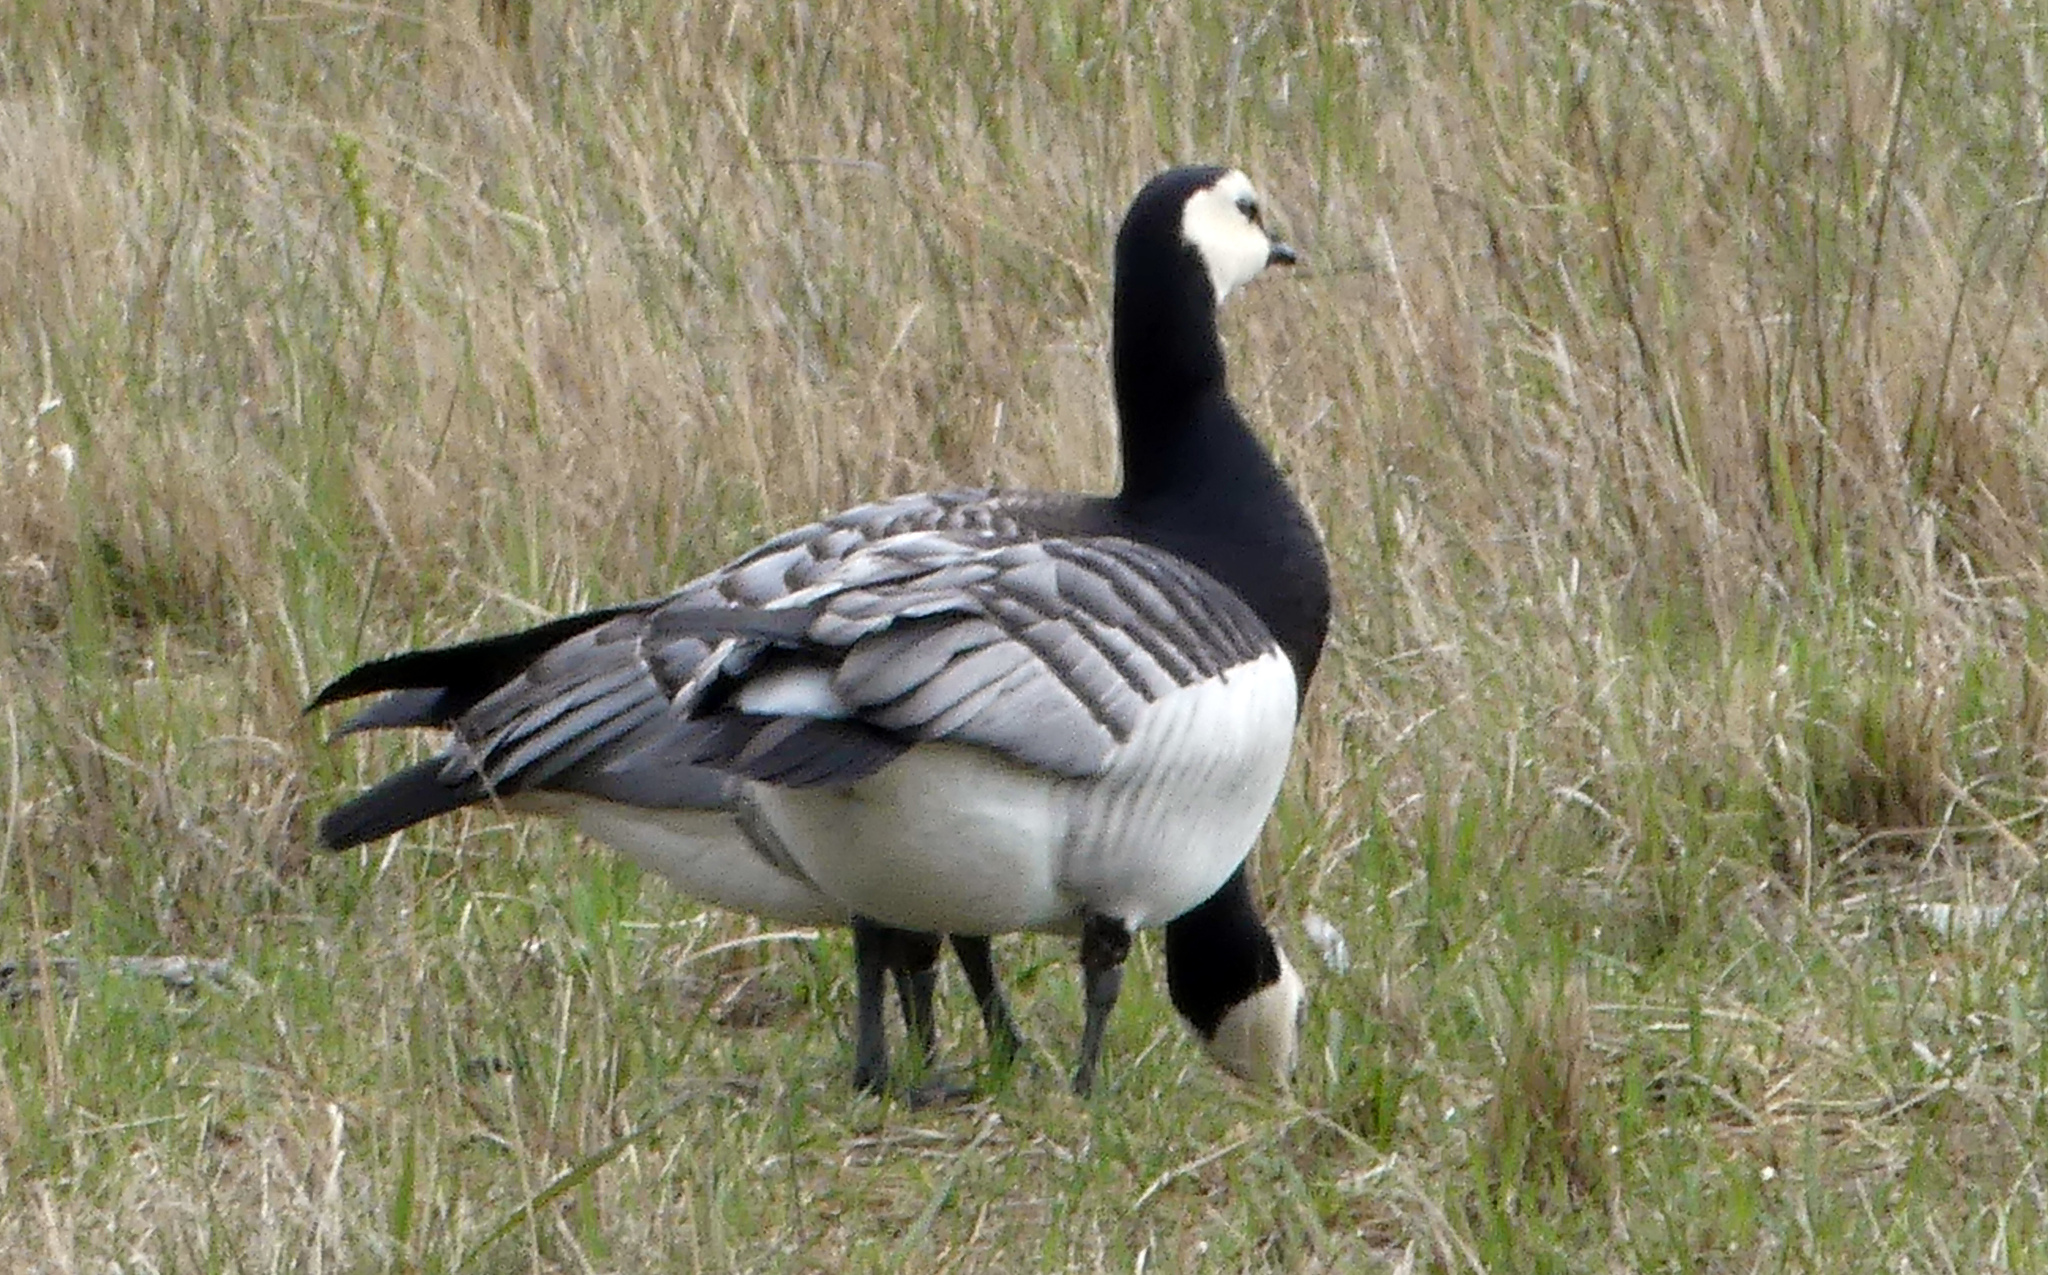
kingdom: Animalia
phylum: Chordata
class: Aves
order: Anseriformes
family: Anatidae
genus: Branta
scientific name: Branta leucopsis
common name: Barnacle goose
